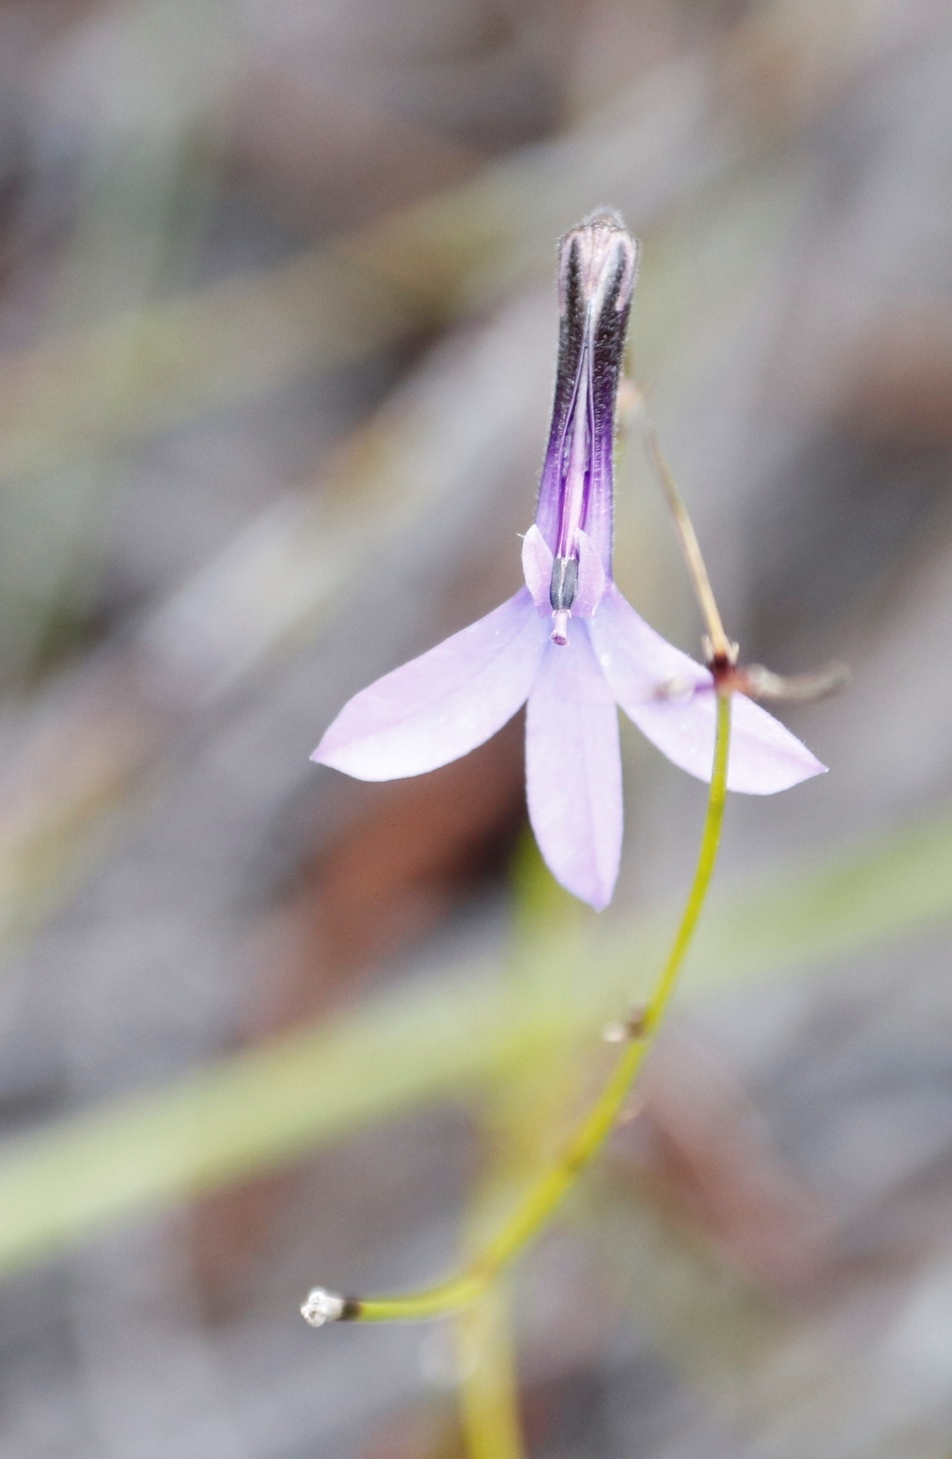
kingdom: Plantae
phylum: Tracheophyta
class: Magnoliopsida
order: Asterales
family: Campanulaceae
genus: Lobelia
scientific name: Lobelia barkerae
